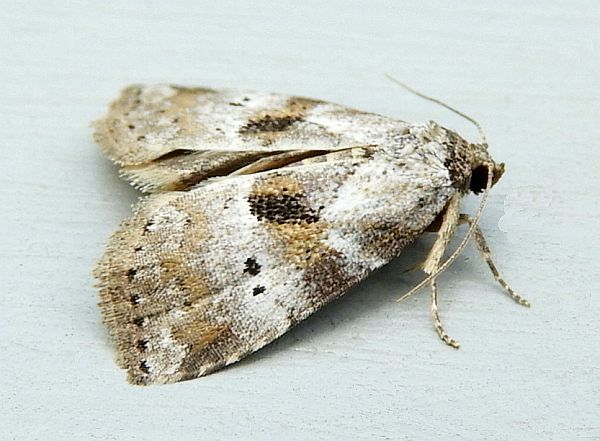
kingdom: Animalia
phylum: Arthropoda
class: Insecta
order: Lepidoptera
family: Erebidae
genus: Hyperstrotia
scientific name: Hyperstrotia secta
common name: Black-patched graylet
